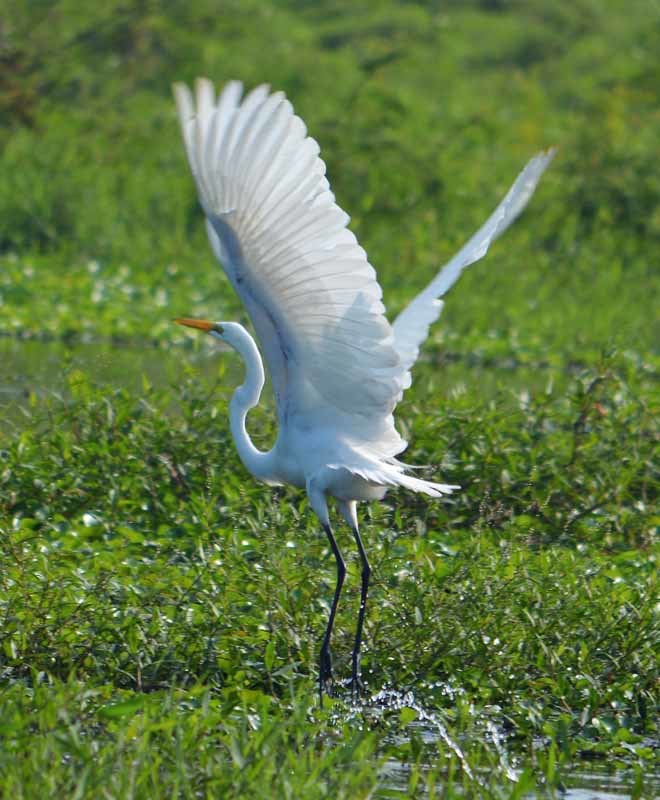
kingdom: Animalia
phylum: Chordata
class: Aves
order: Pelecaniformes
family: Ardeidae
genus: Ardea
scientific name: Ardea alba
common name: Great egret
